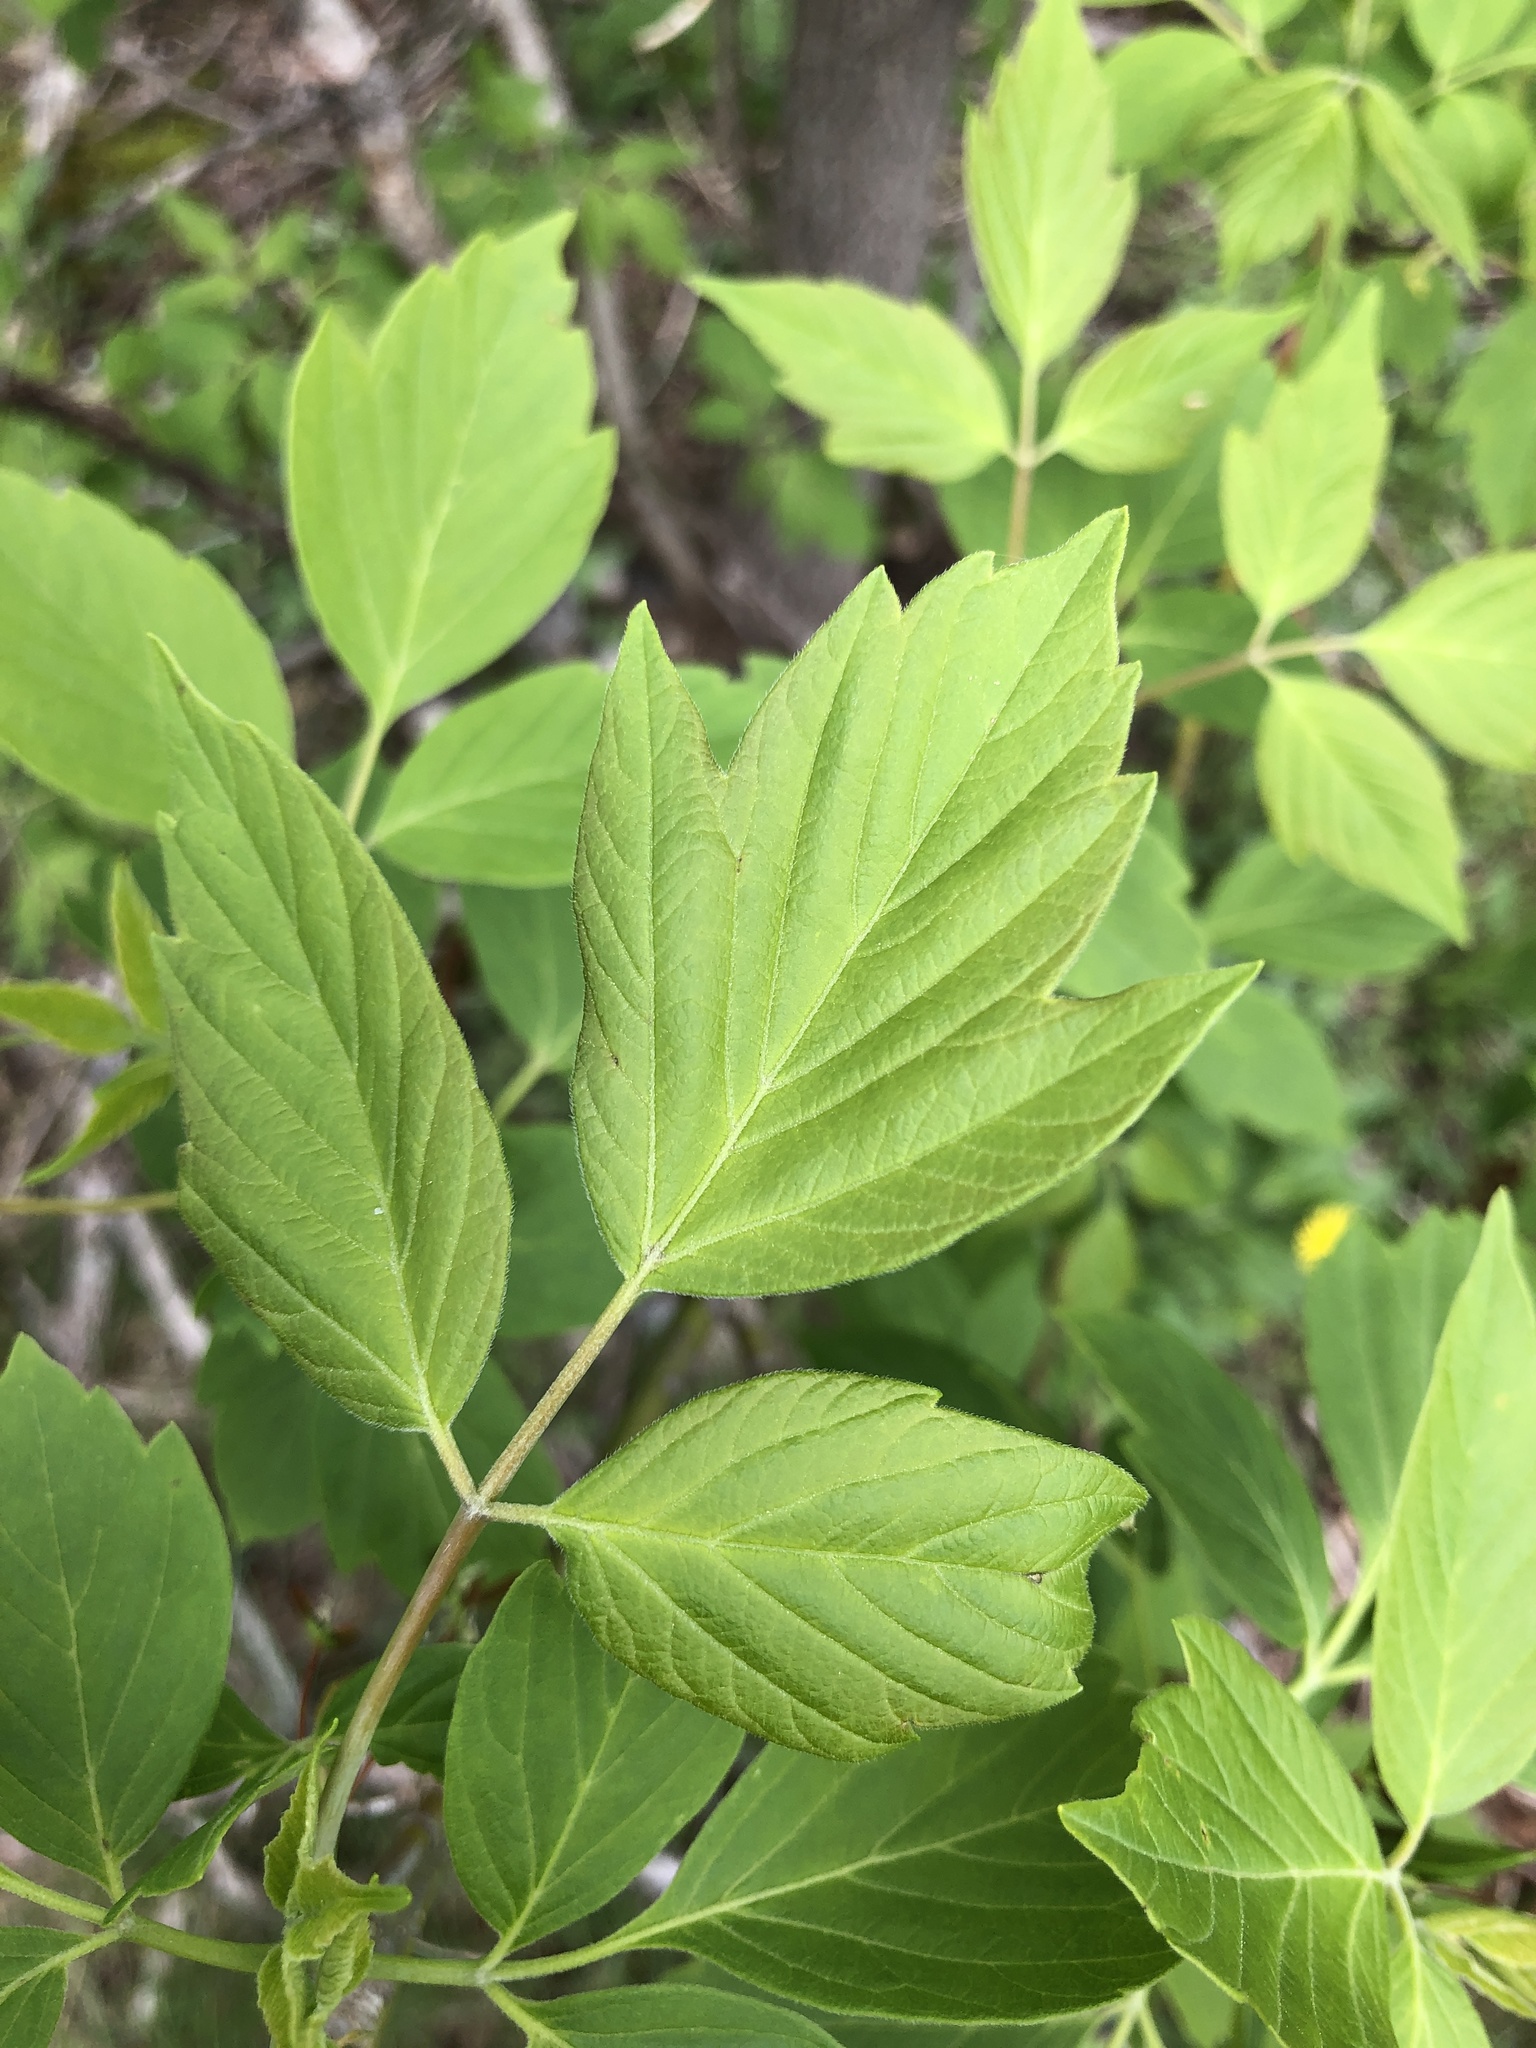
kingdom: Plantae
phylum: Tracheophyta
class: Magnoliopsida
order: Sapindales
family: Sapindaceae
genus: Acer
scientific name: Acer negundo
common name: Ashleaf maple
